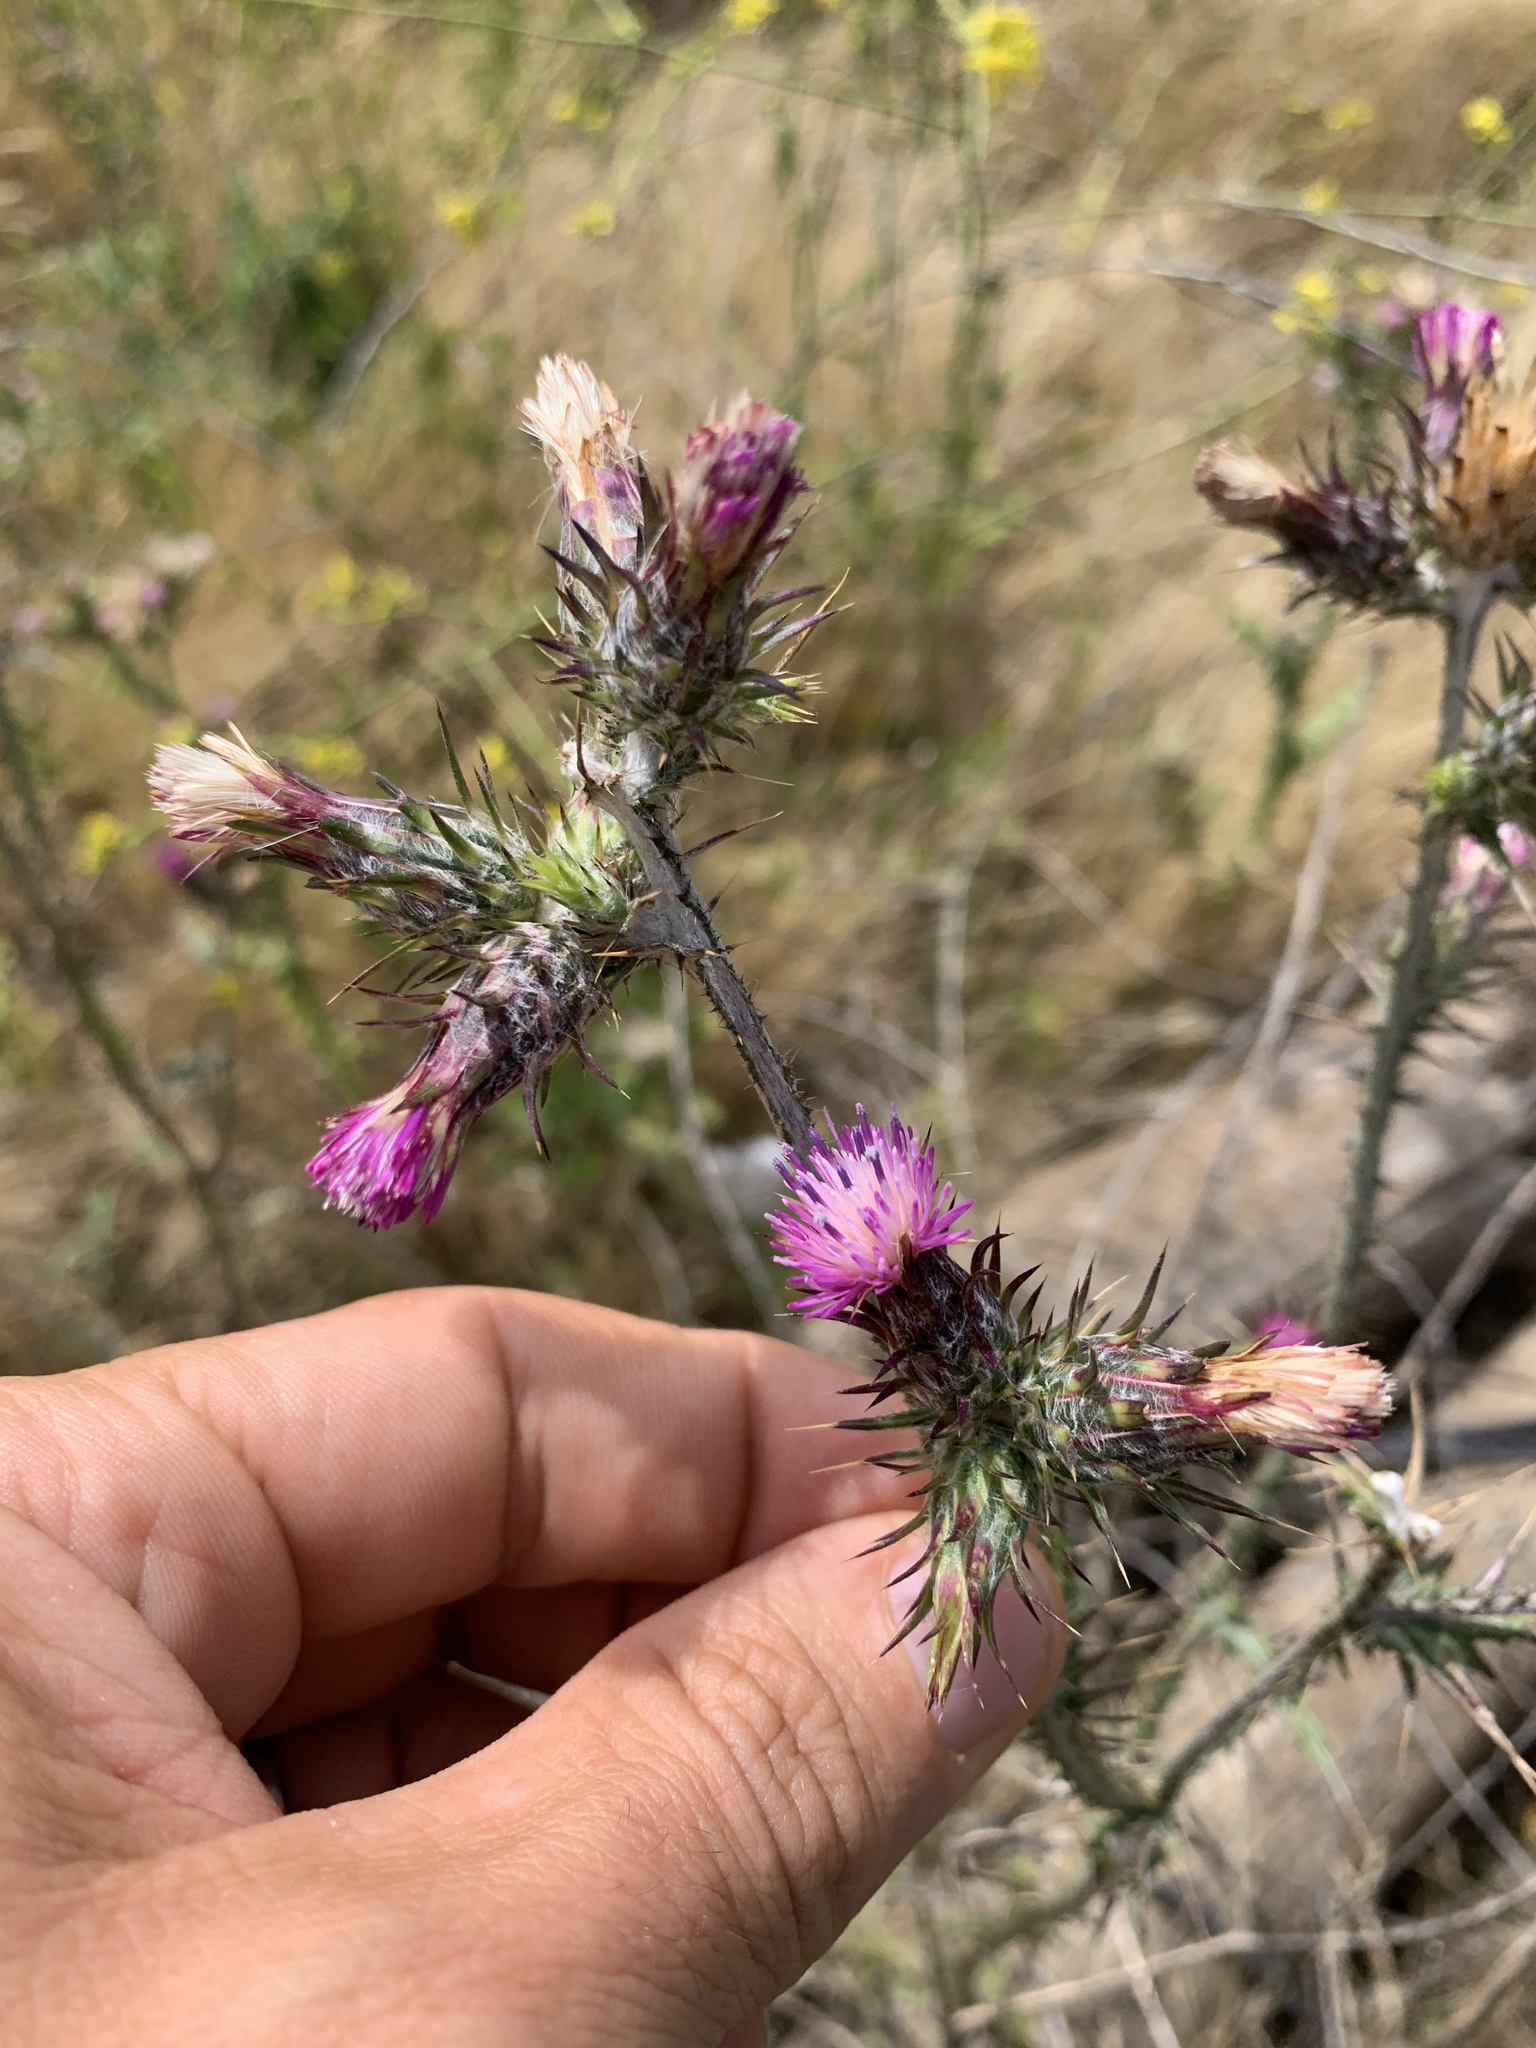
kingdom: Plantae
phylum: Tracheophyta
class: Magnoliopsida
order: Asterales
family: Asteraceae
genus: Carduus
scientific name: Carduus pycnocephalus
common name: Plymouth thistle
